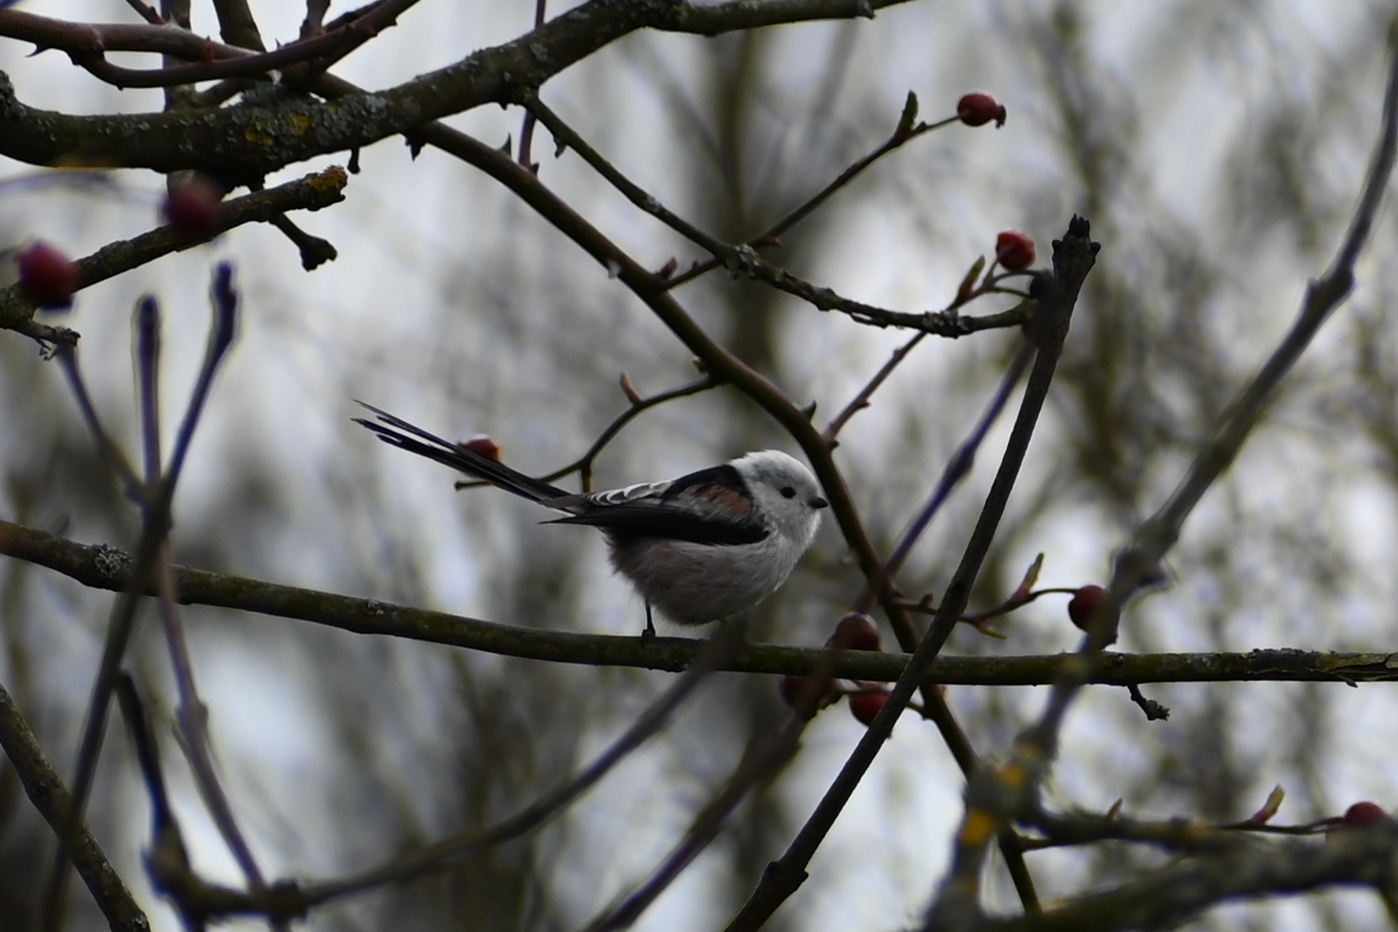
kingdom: Animalia
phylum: Chordata
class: Aves
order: Passeriformes
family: Aegithalidae
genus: Aegithalos
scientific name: Aegithalos caudatus
